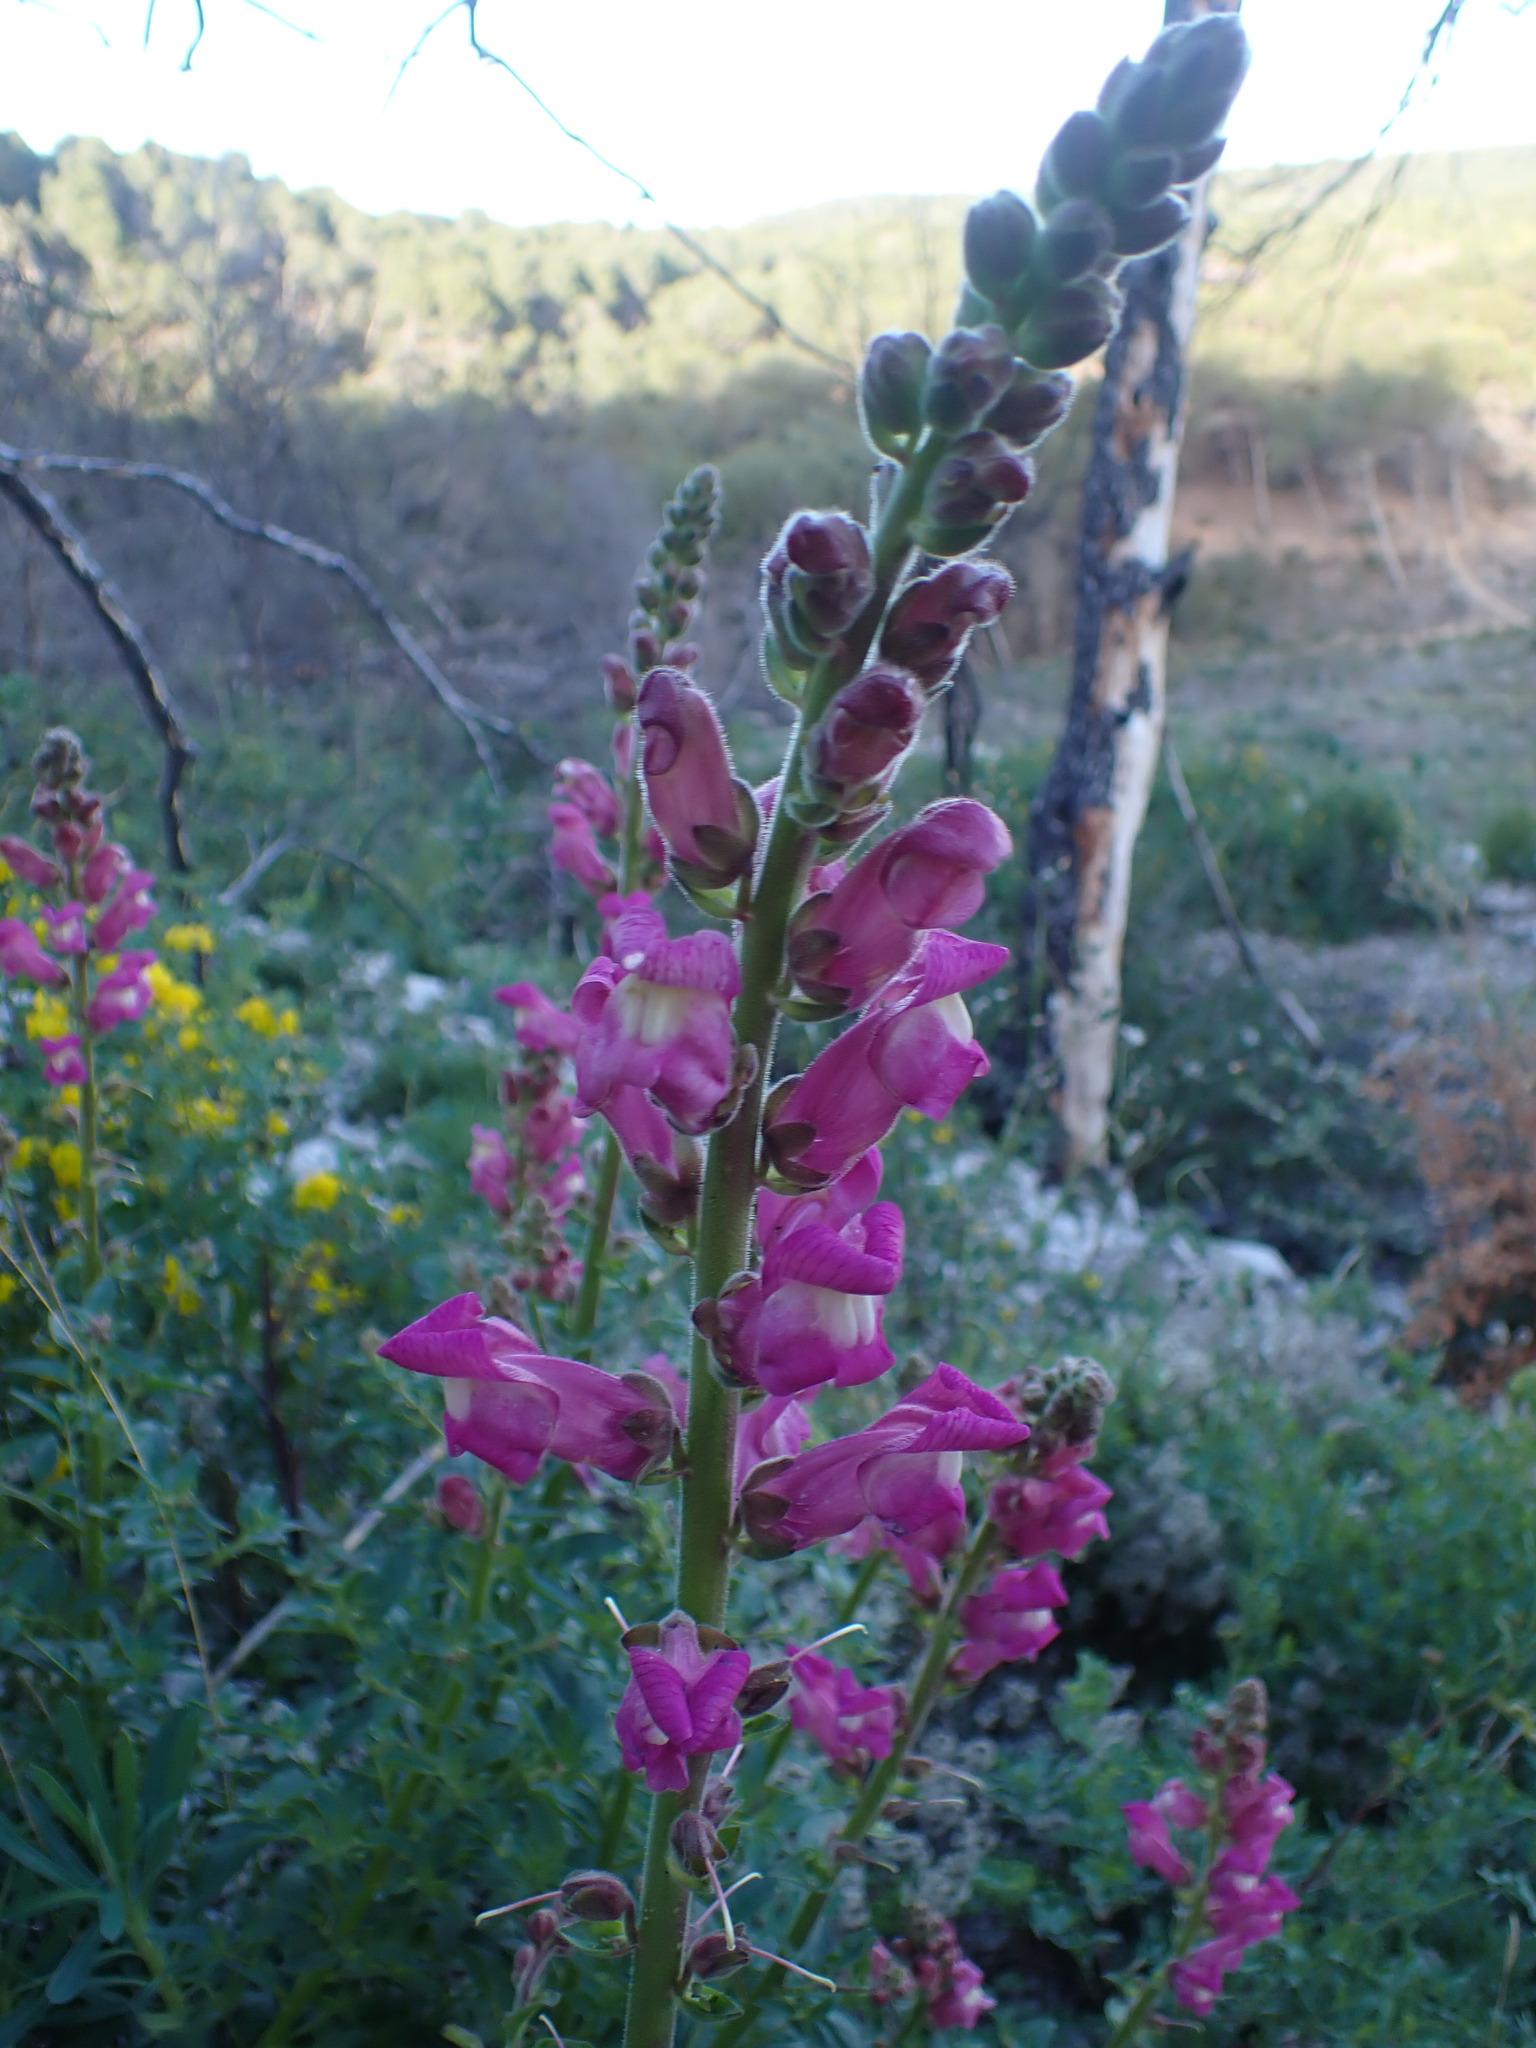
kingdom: Plantae
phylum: Tracheophyta
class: Magnoliopsida
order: Lamiales
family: Plantaginaceae
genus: Antirrhinum
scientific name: Antirrhinum majus
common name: Snapdragon
